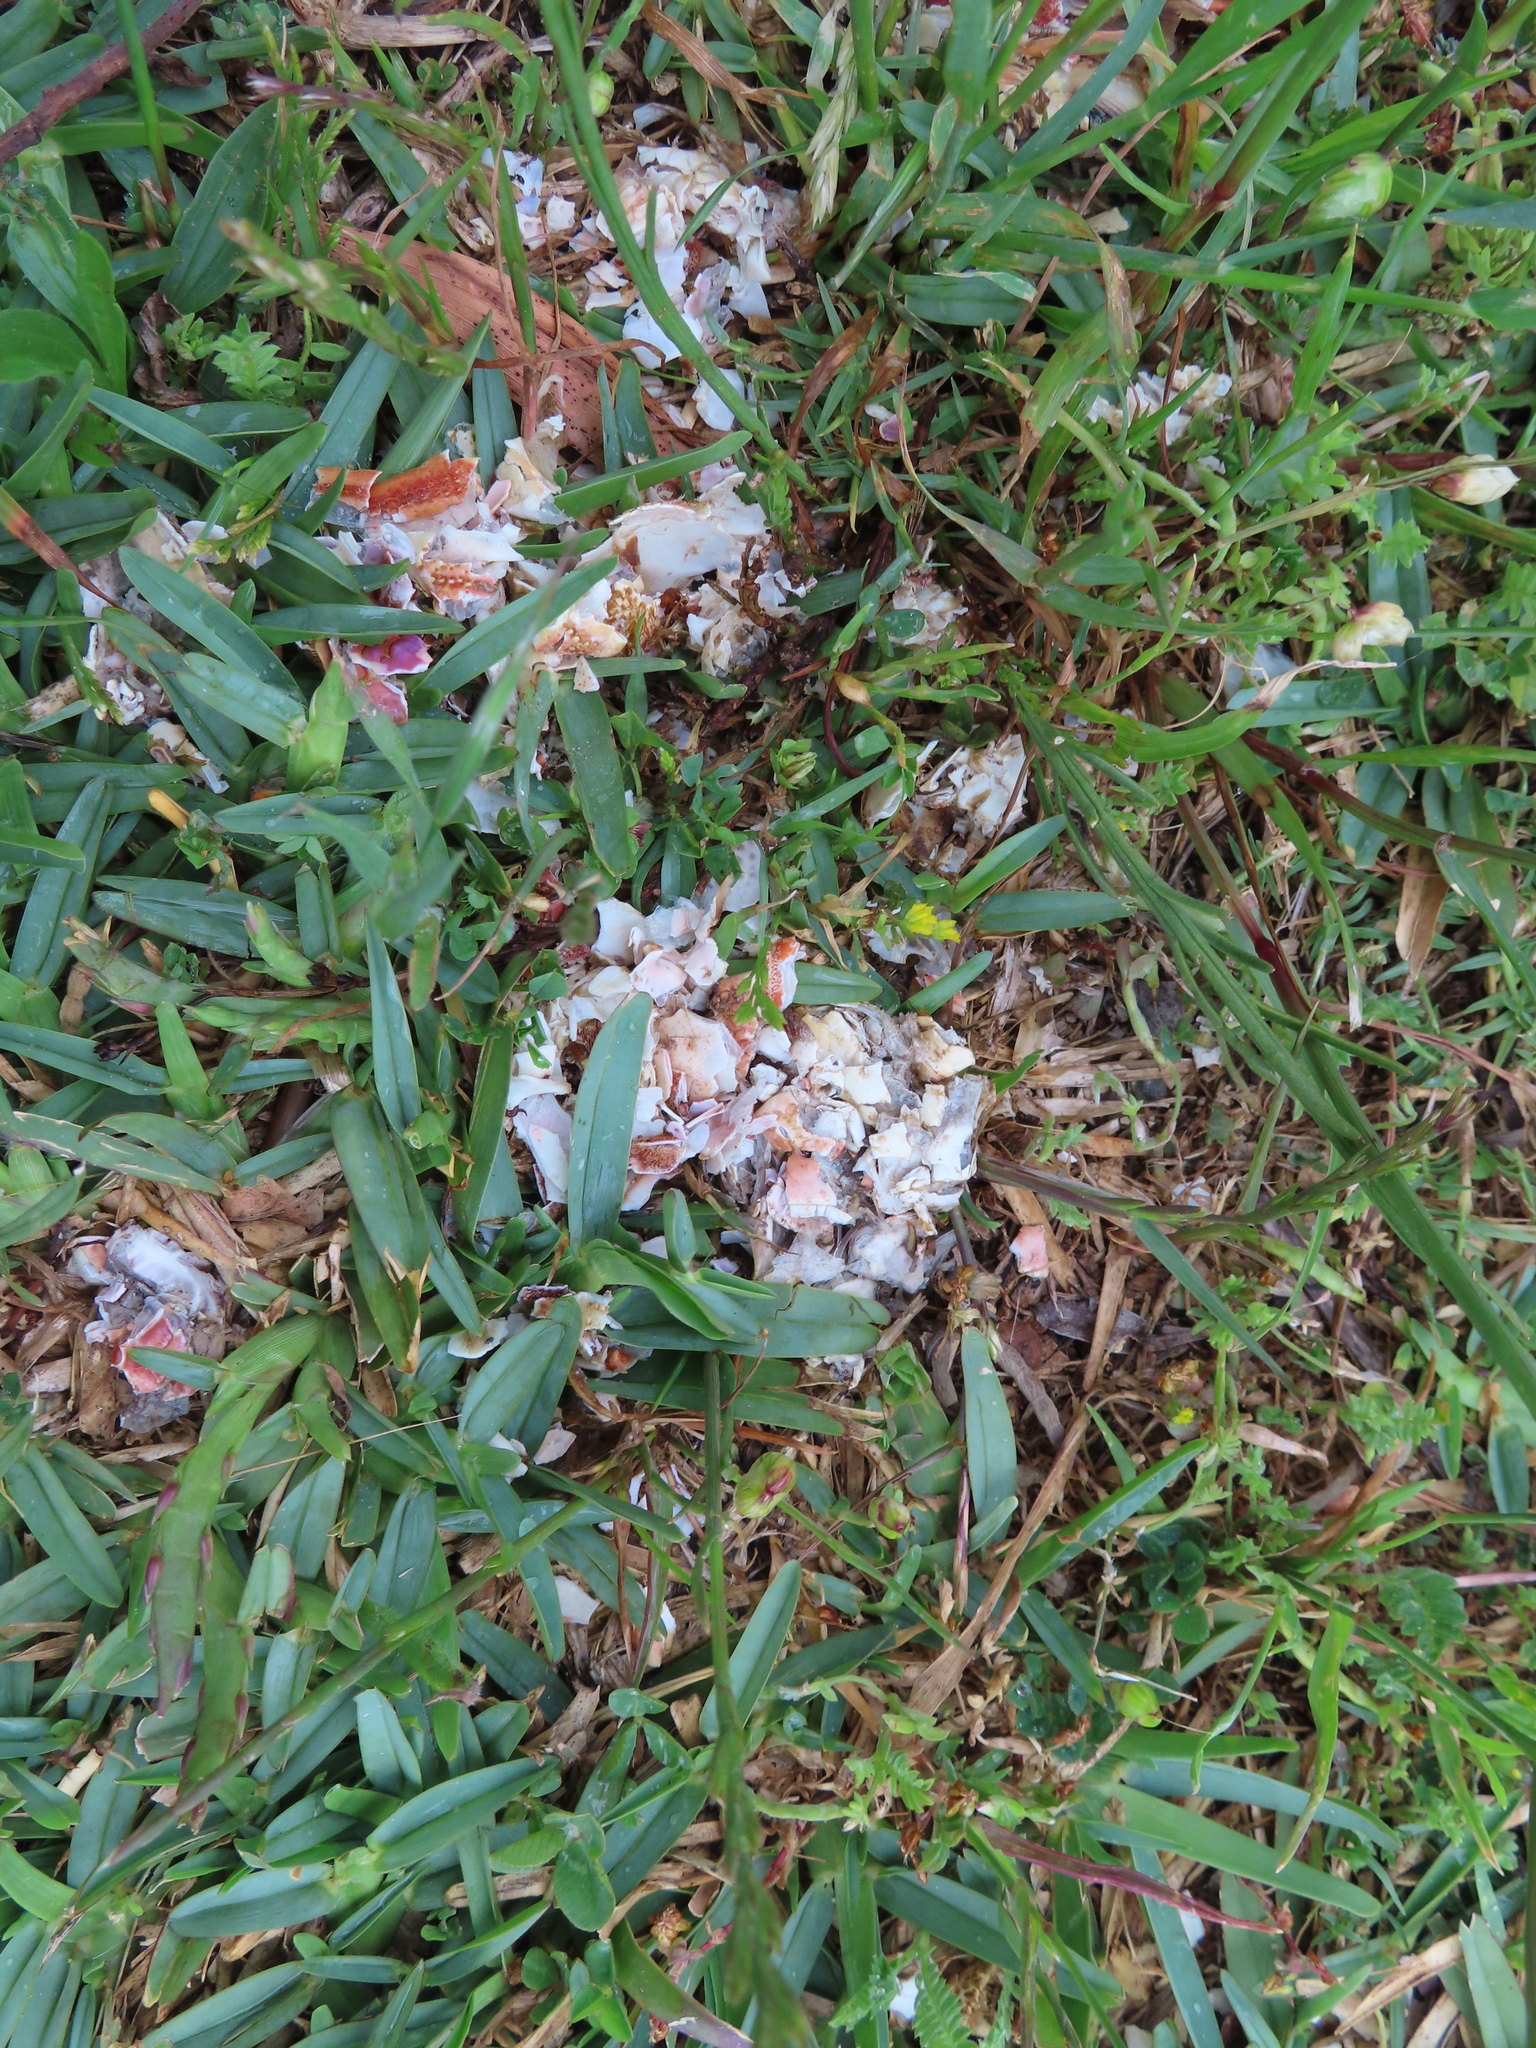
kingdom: Animalia
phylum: Chordata
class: Mammalia
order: Carnivora
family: Mustelidae
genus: Aonyx
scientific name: Aonyx capensis
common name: African clawless otter
